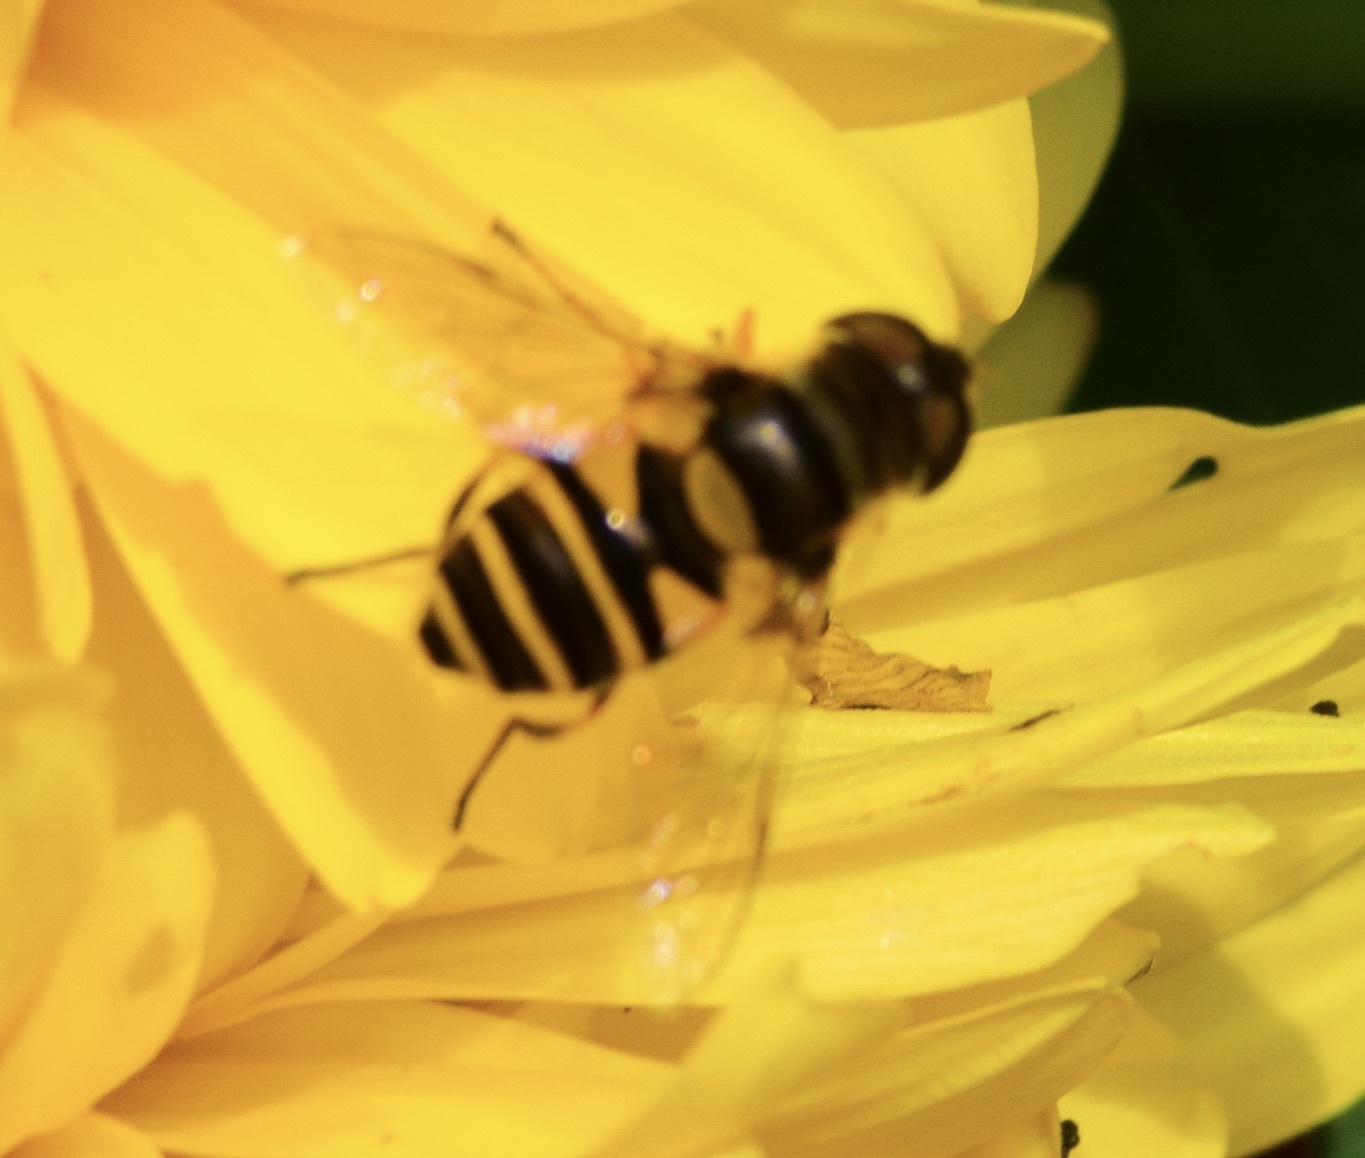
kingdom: Animalia
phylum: Arthropoda
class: Insecta
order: Diptera
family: Syrphidae
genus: Eristalis
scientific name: Eristalis transversa
